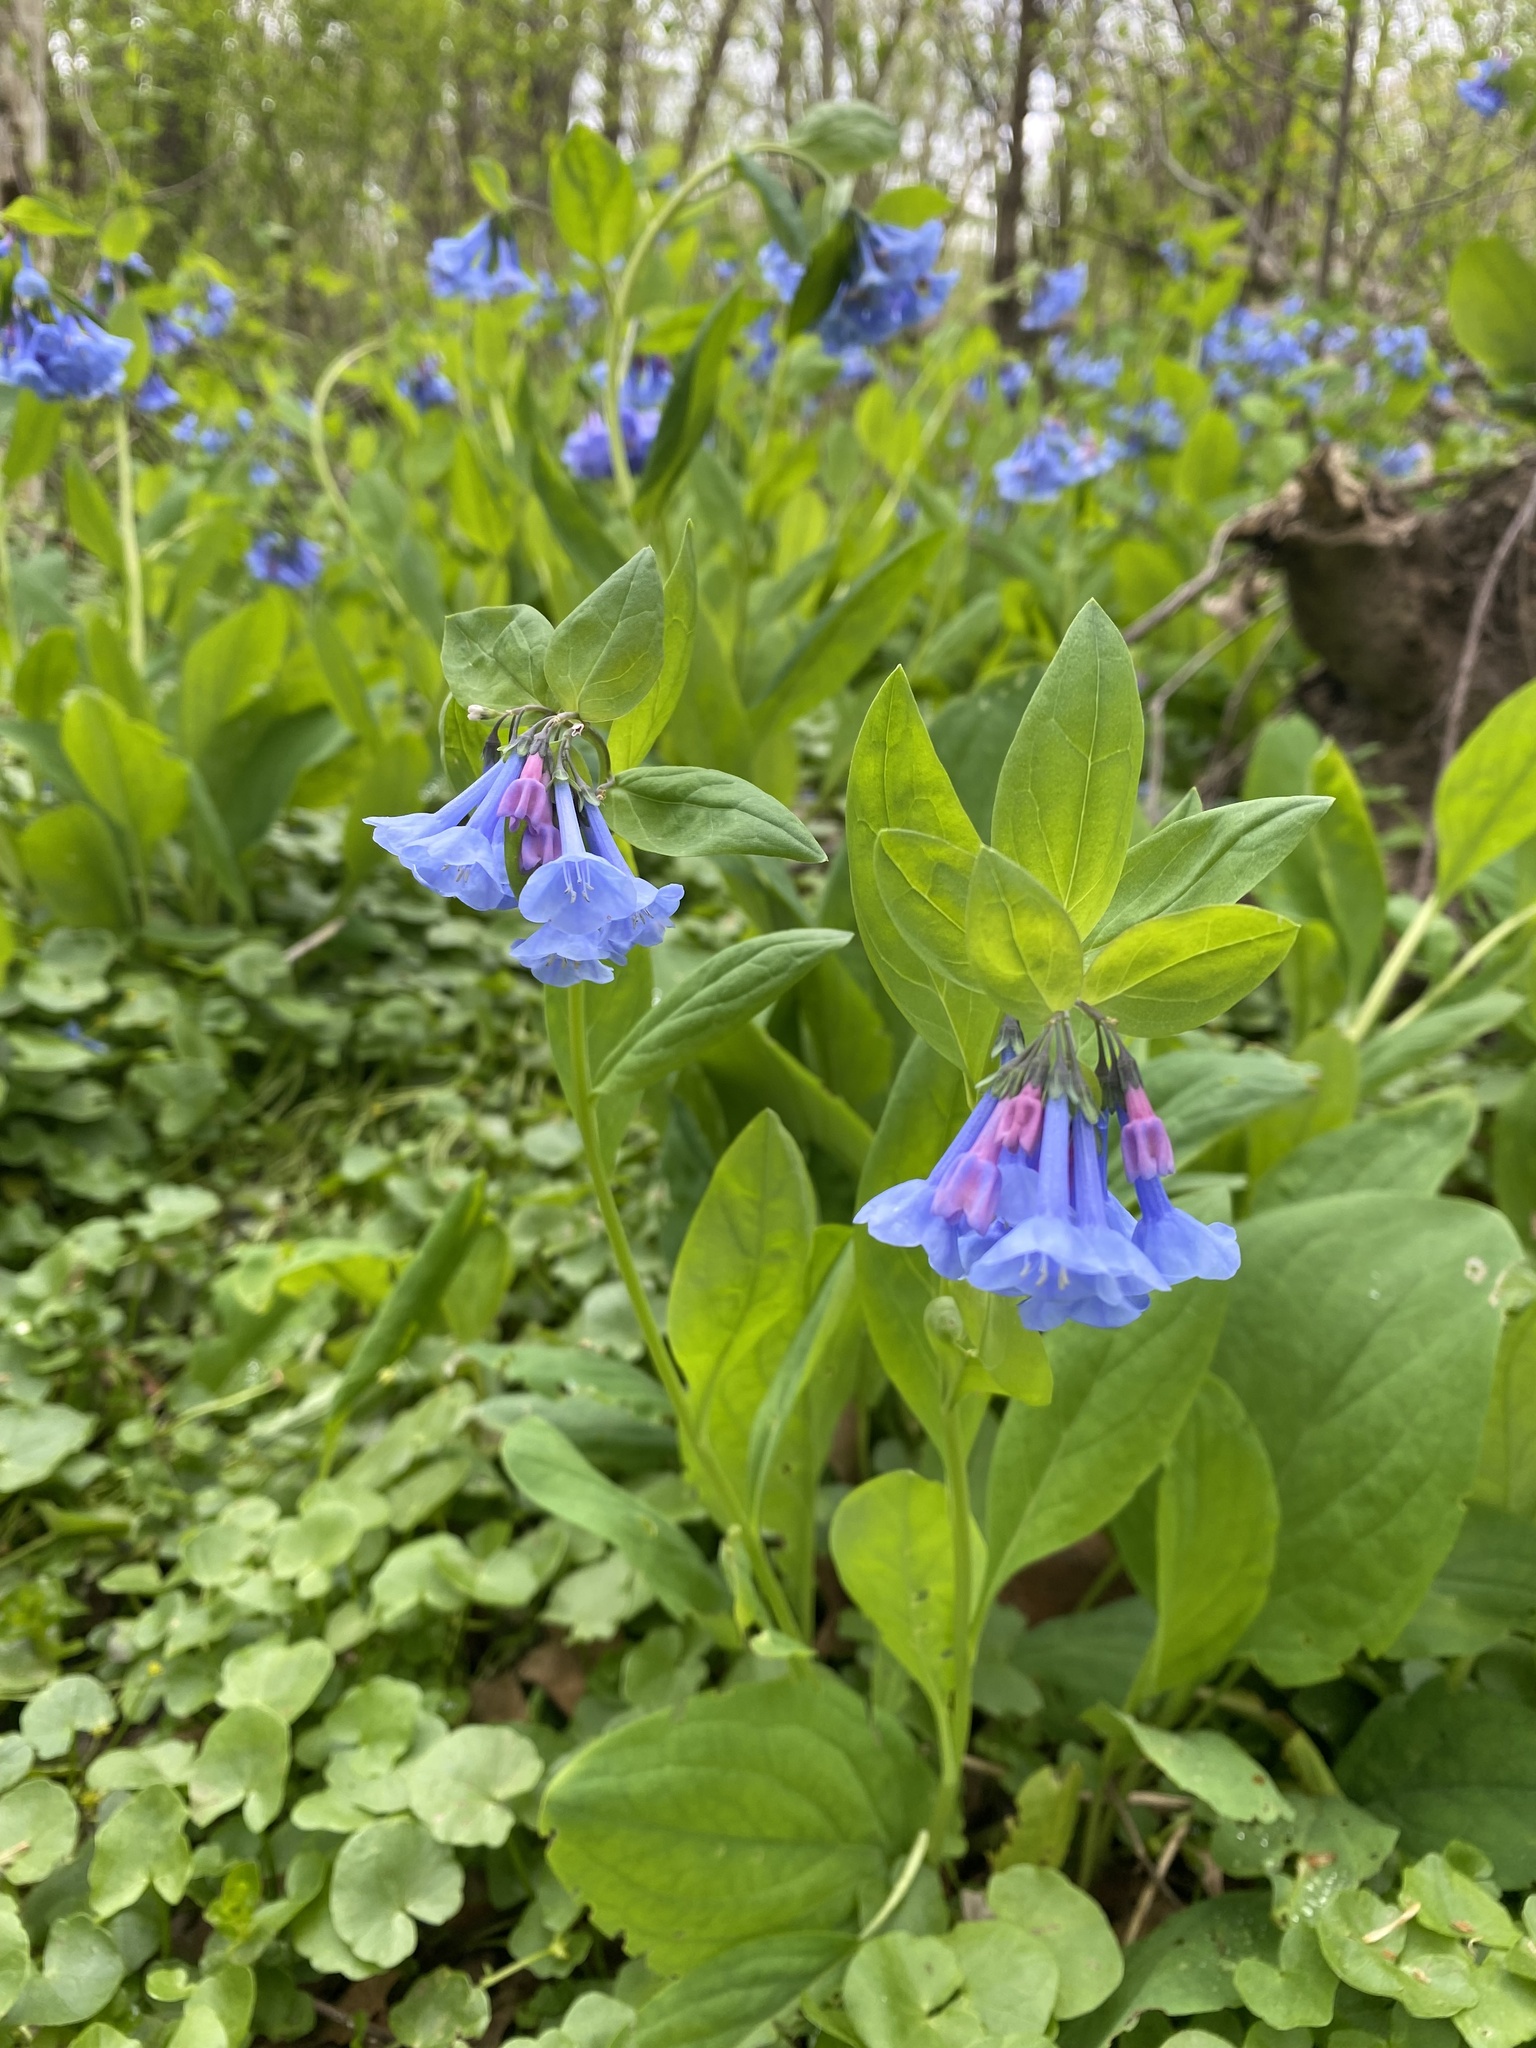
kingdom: Plantae
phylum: Tracheophyta
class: Magnoliopsida
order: Boraginales
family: Boraginaceae
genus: Mertensia
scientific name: Mertensia virginica
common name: Virginia bluebells
